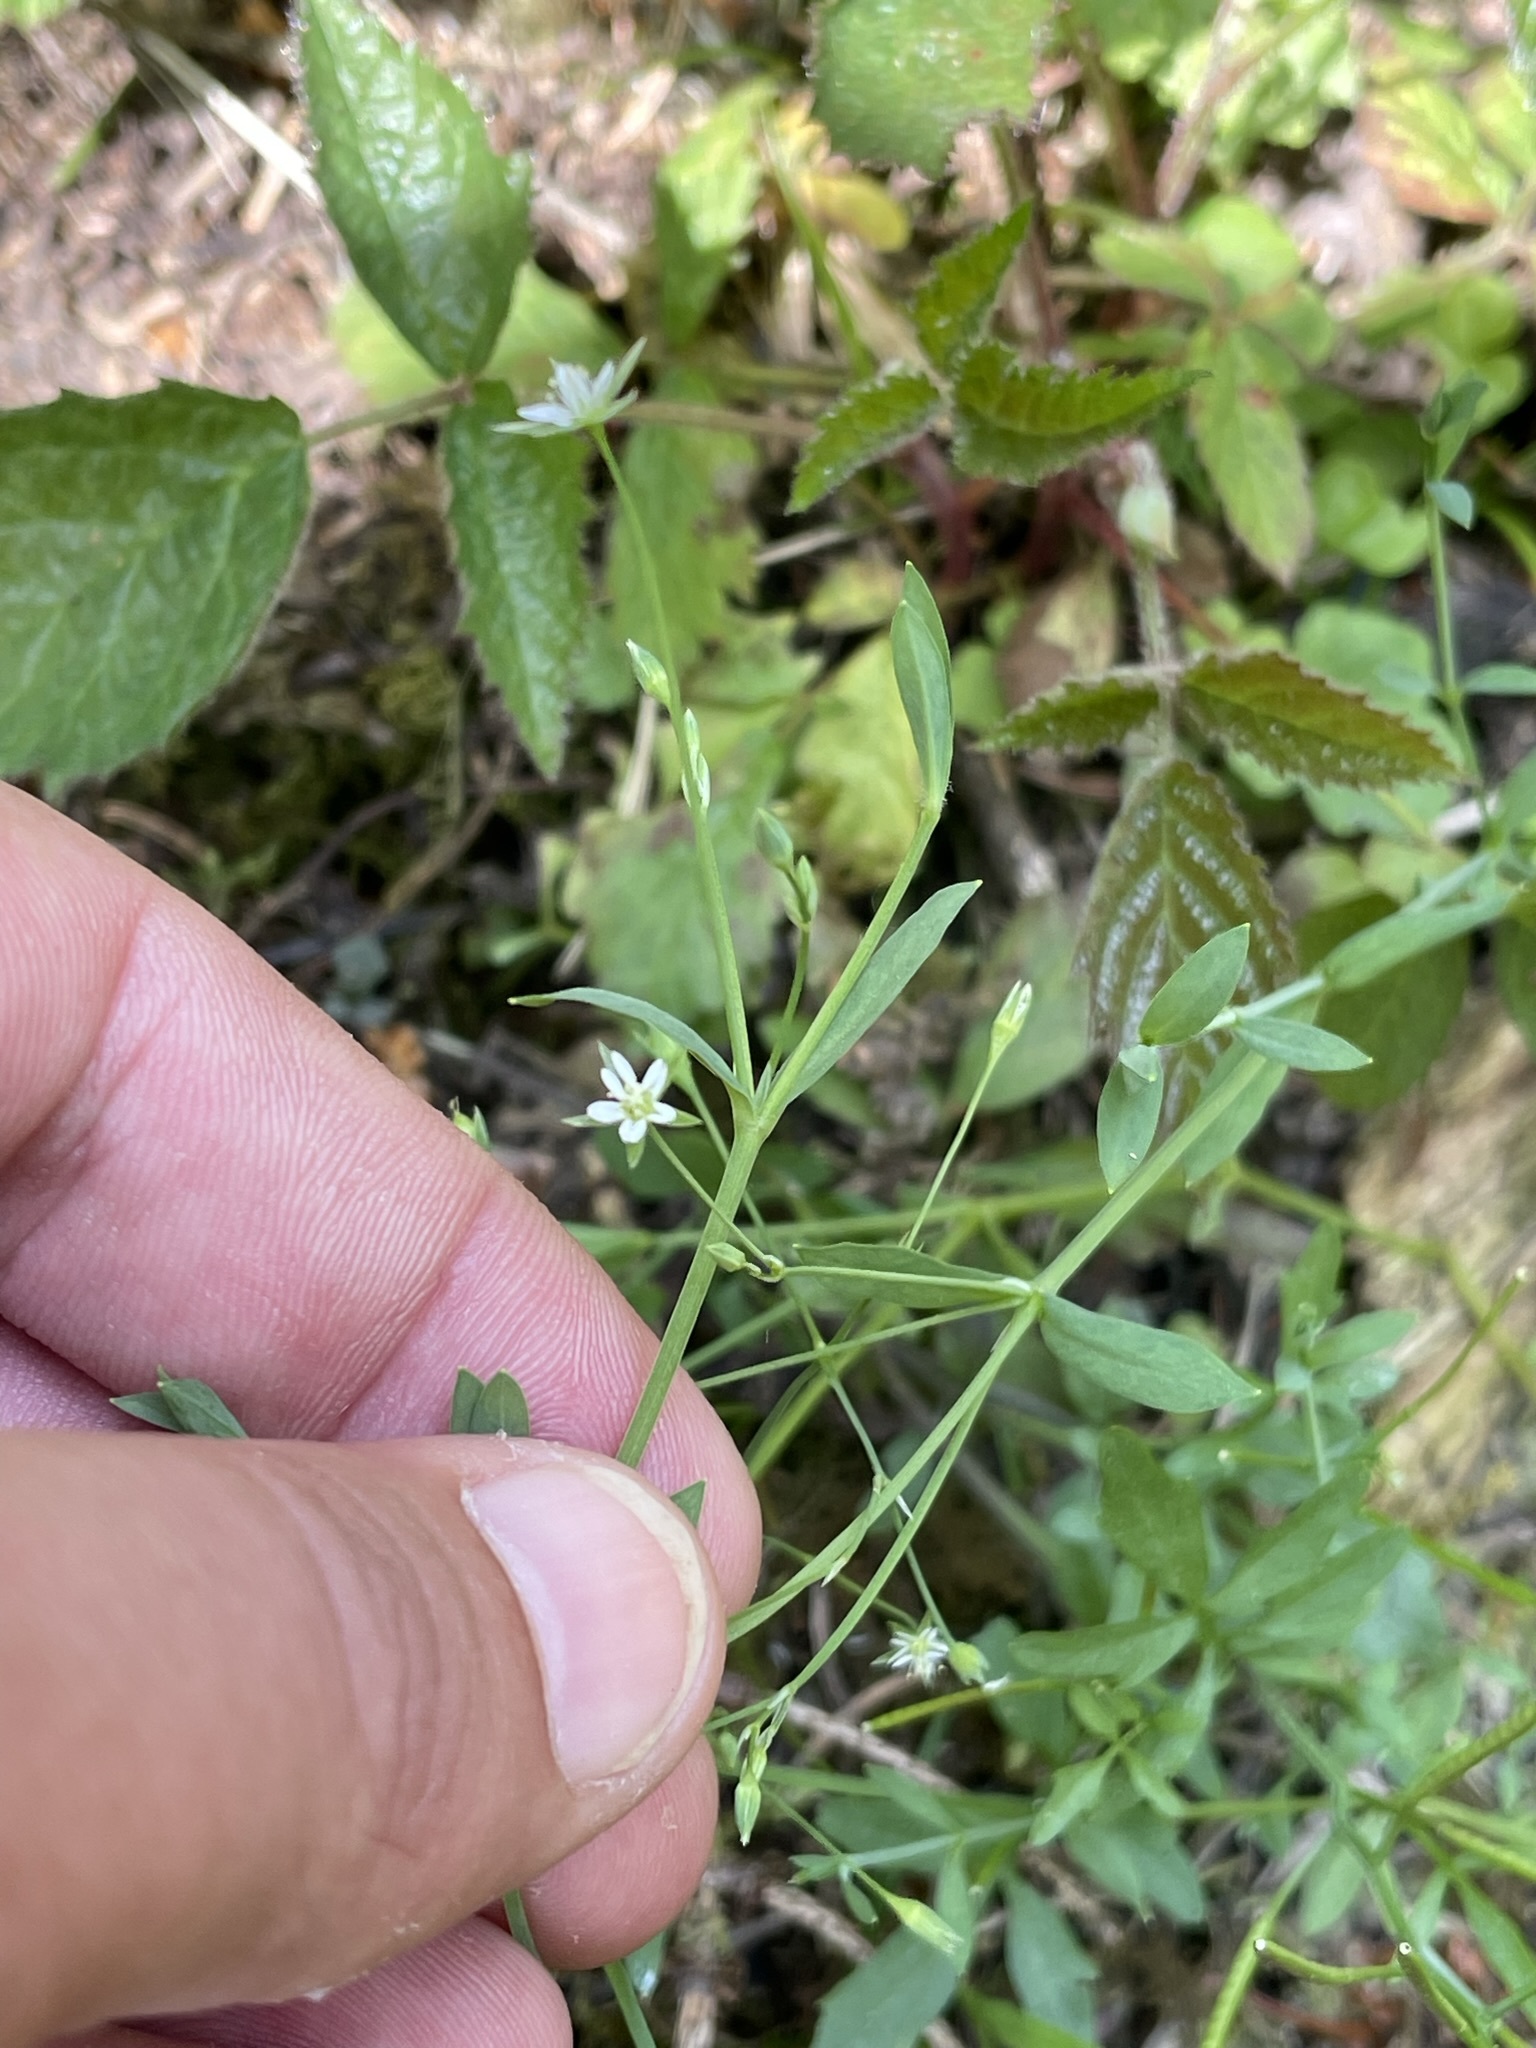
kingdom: Plantae
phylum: Tracheophyta
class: Magnoliopsida
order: Caryophyllales
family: Caryophyllaceae
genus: Stellaria
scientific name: Stellaria alsine
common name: Bog stitchwort
